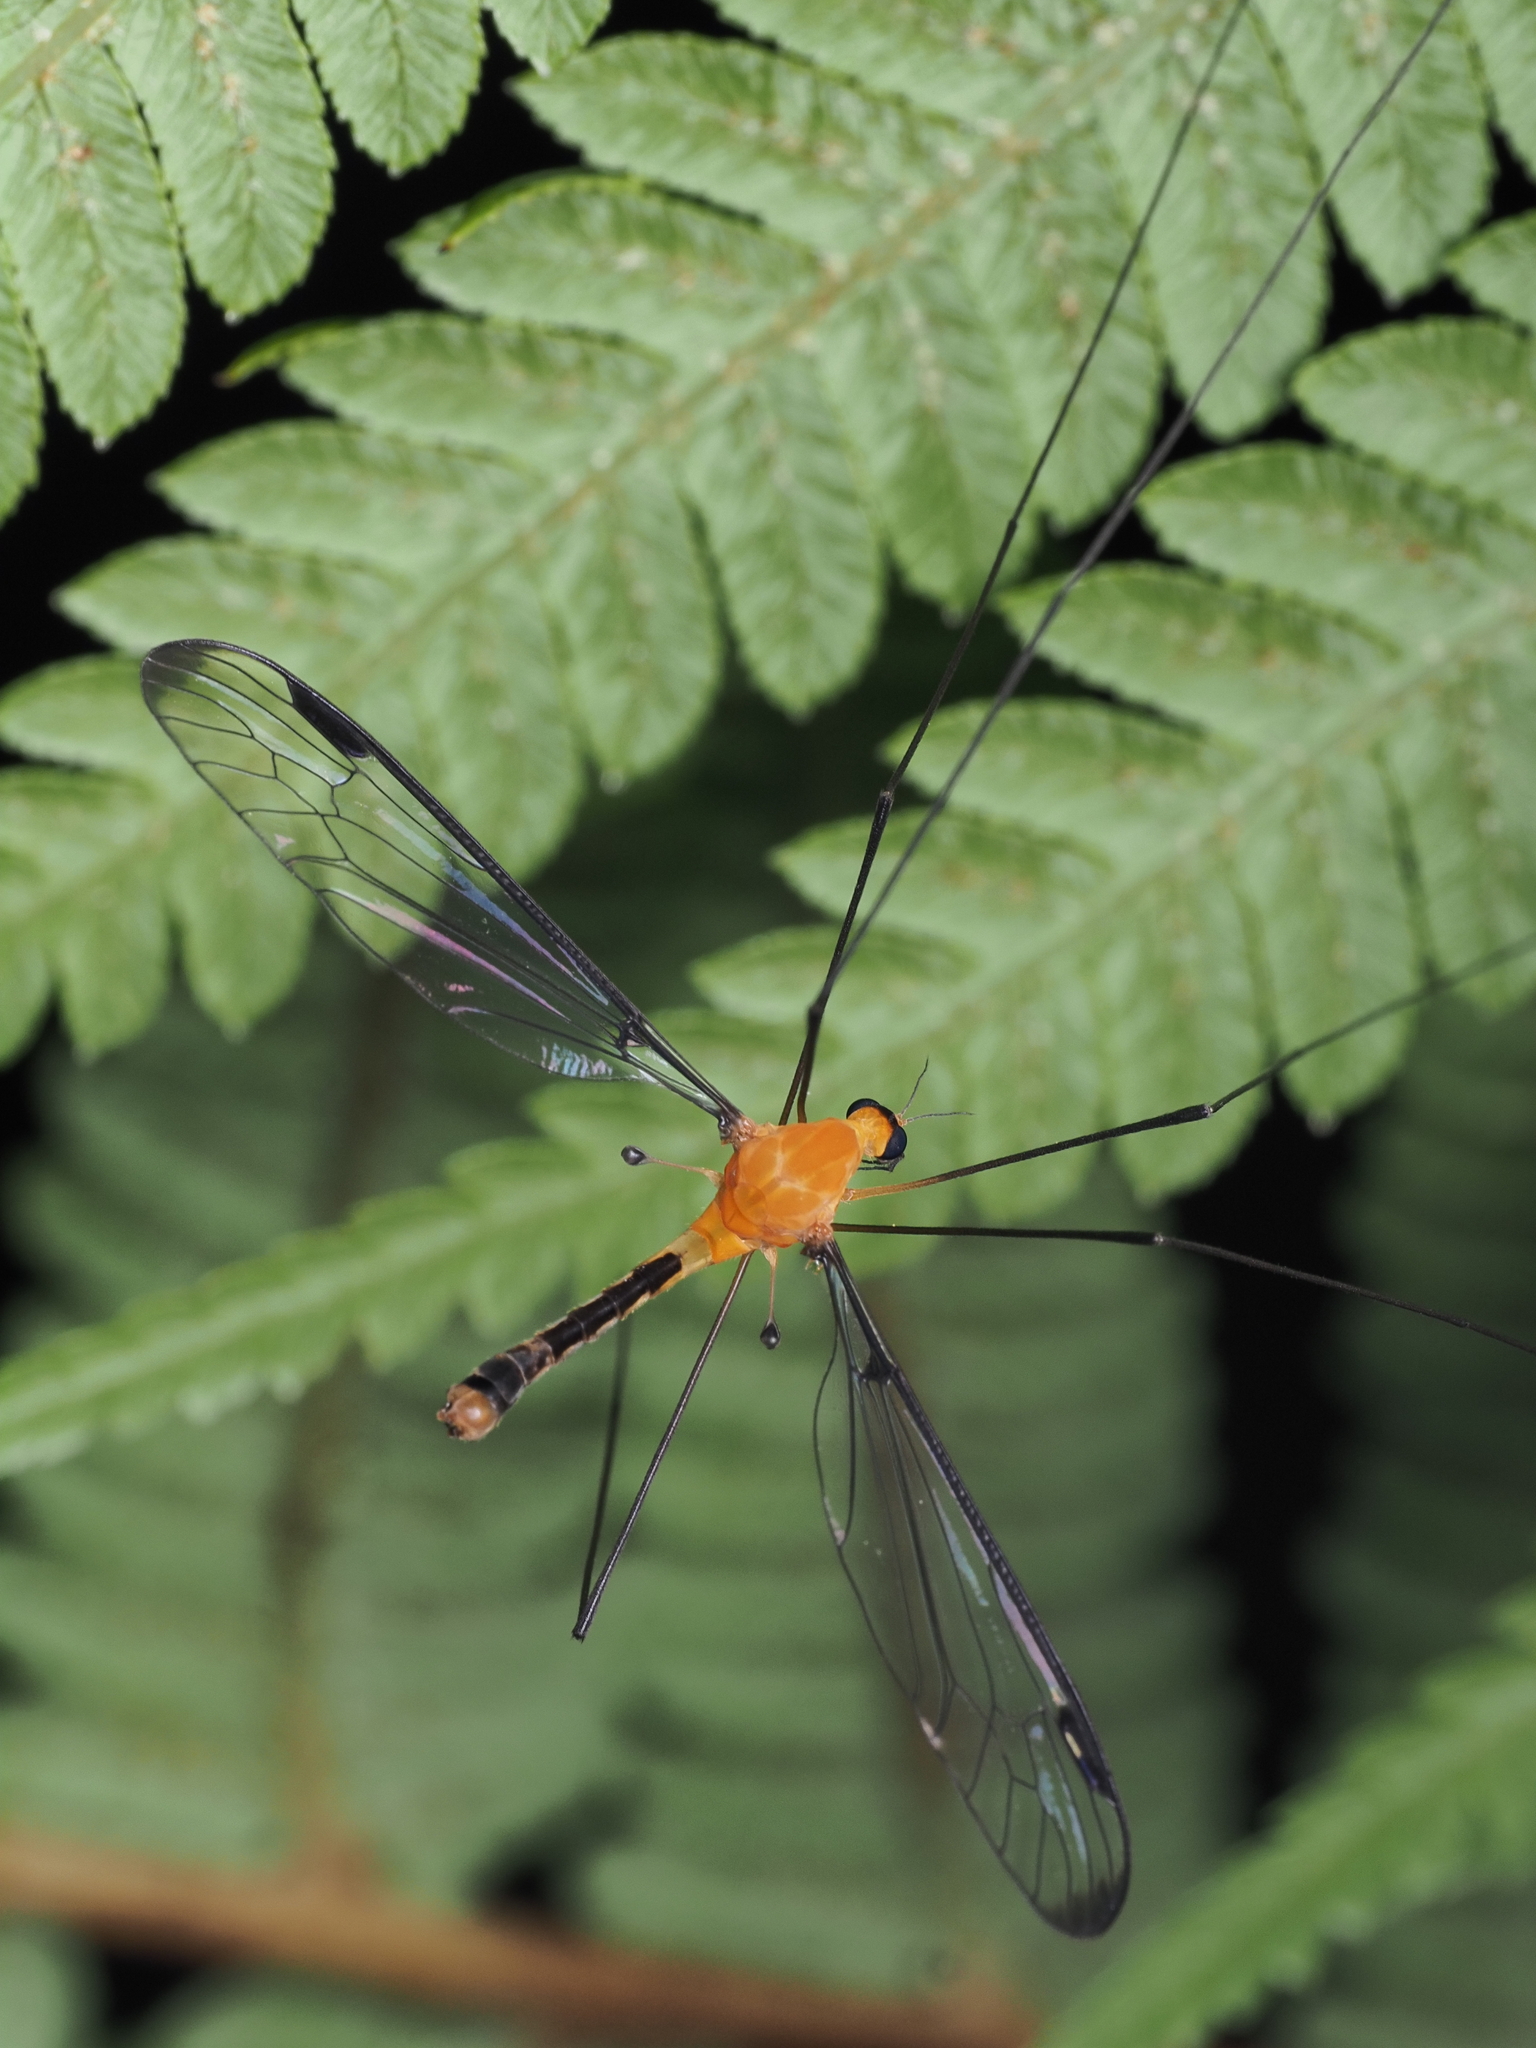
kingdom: Animalia
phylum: Arthropoda
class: Insecta
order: Diptera
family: Tipulidae
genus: Aurotipula
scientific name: Aurotipula
